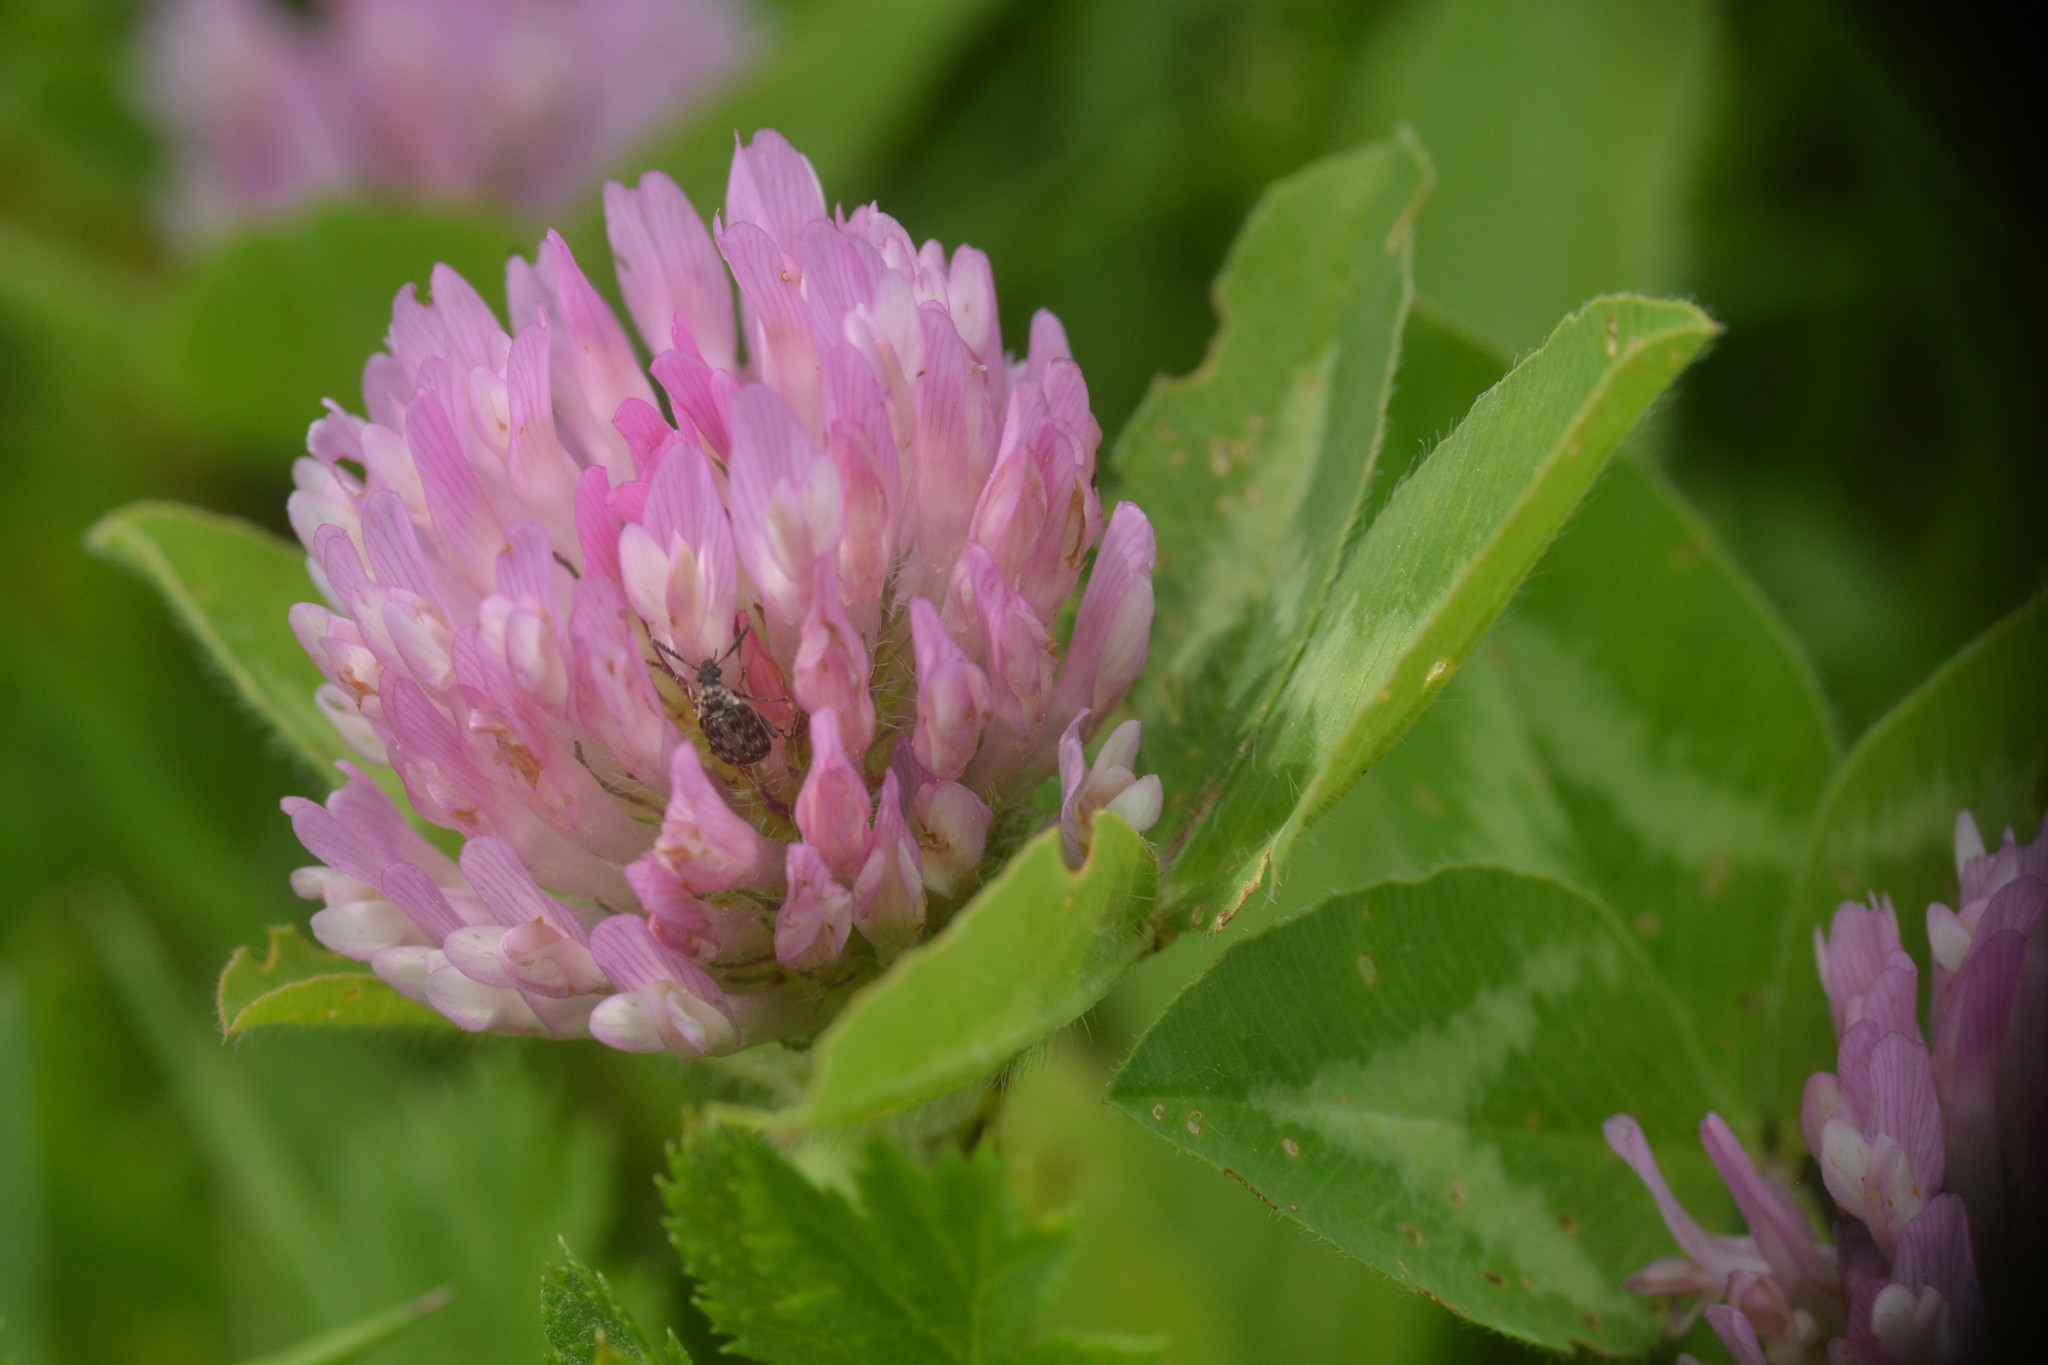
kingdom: Plantae
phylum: Tracheophyta
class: Magnoliopsida
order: Fabales
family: Fabaceae
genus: Trifolium
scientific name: Trifolium pratense
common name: Red clover
